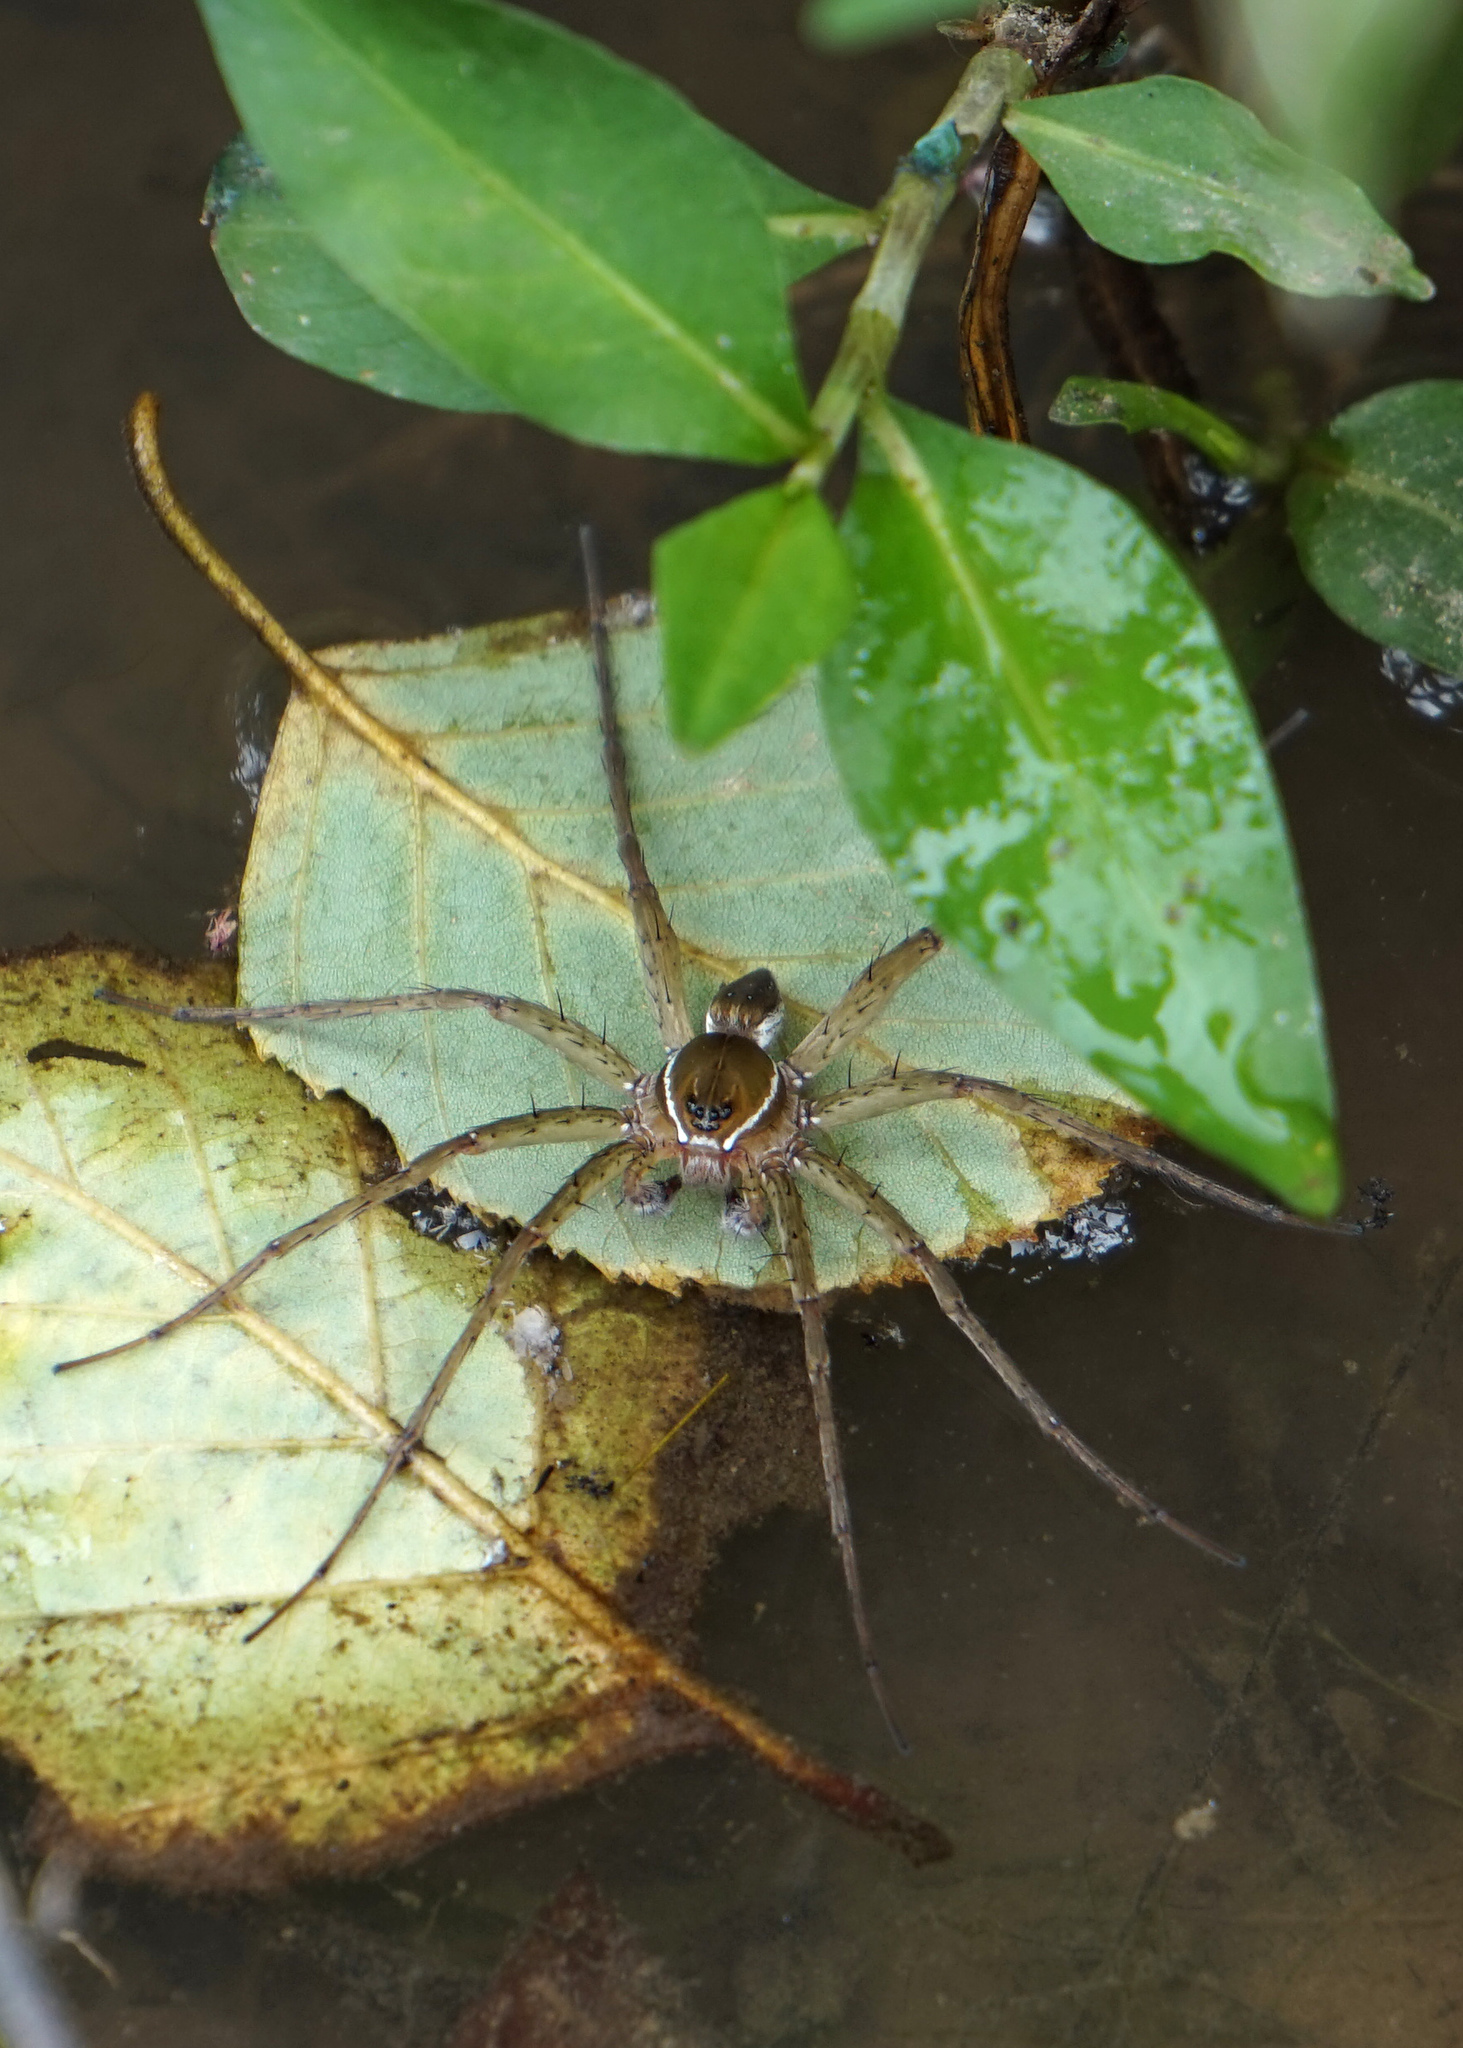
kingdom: Animalia
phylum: Arthropoda
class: Arachnida
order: Araneae
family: Pisauridae
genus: Dolomedes
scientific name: Dolomedes triton
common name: Six-spotted fishing spider
